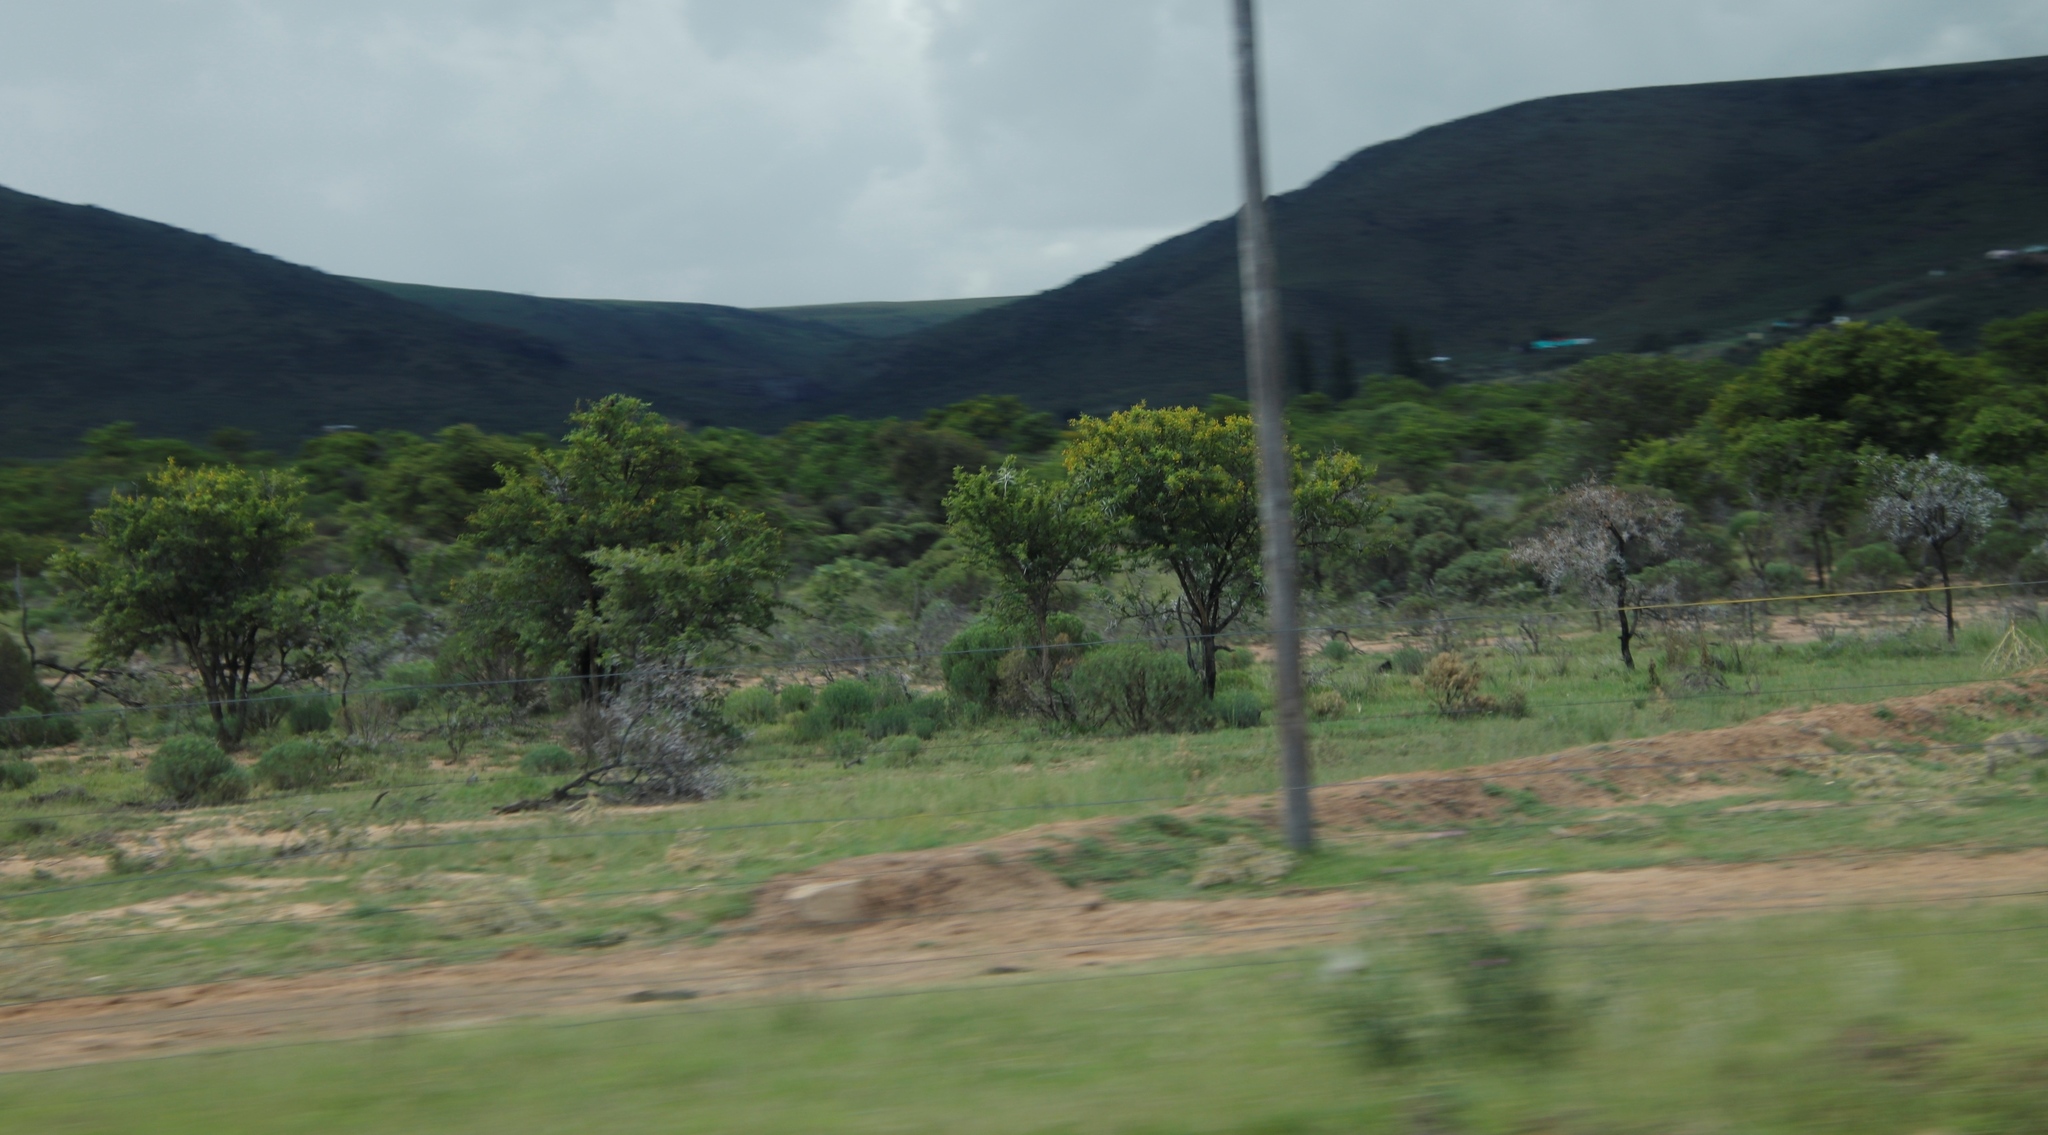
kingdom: Plantae
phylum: Tracheophyta
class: Magnoliopsida
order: Fabales
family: Fabaceae
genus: Vachellia
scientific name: Vachellia karroo
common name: Sweet thorn
